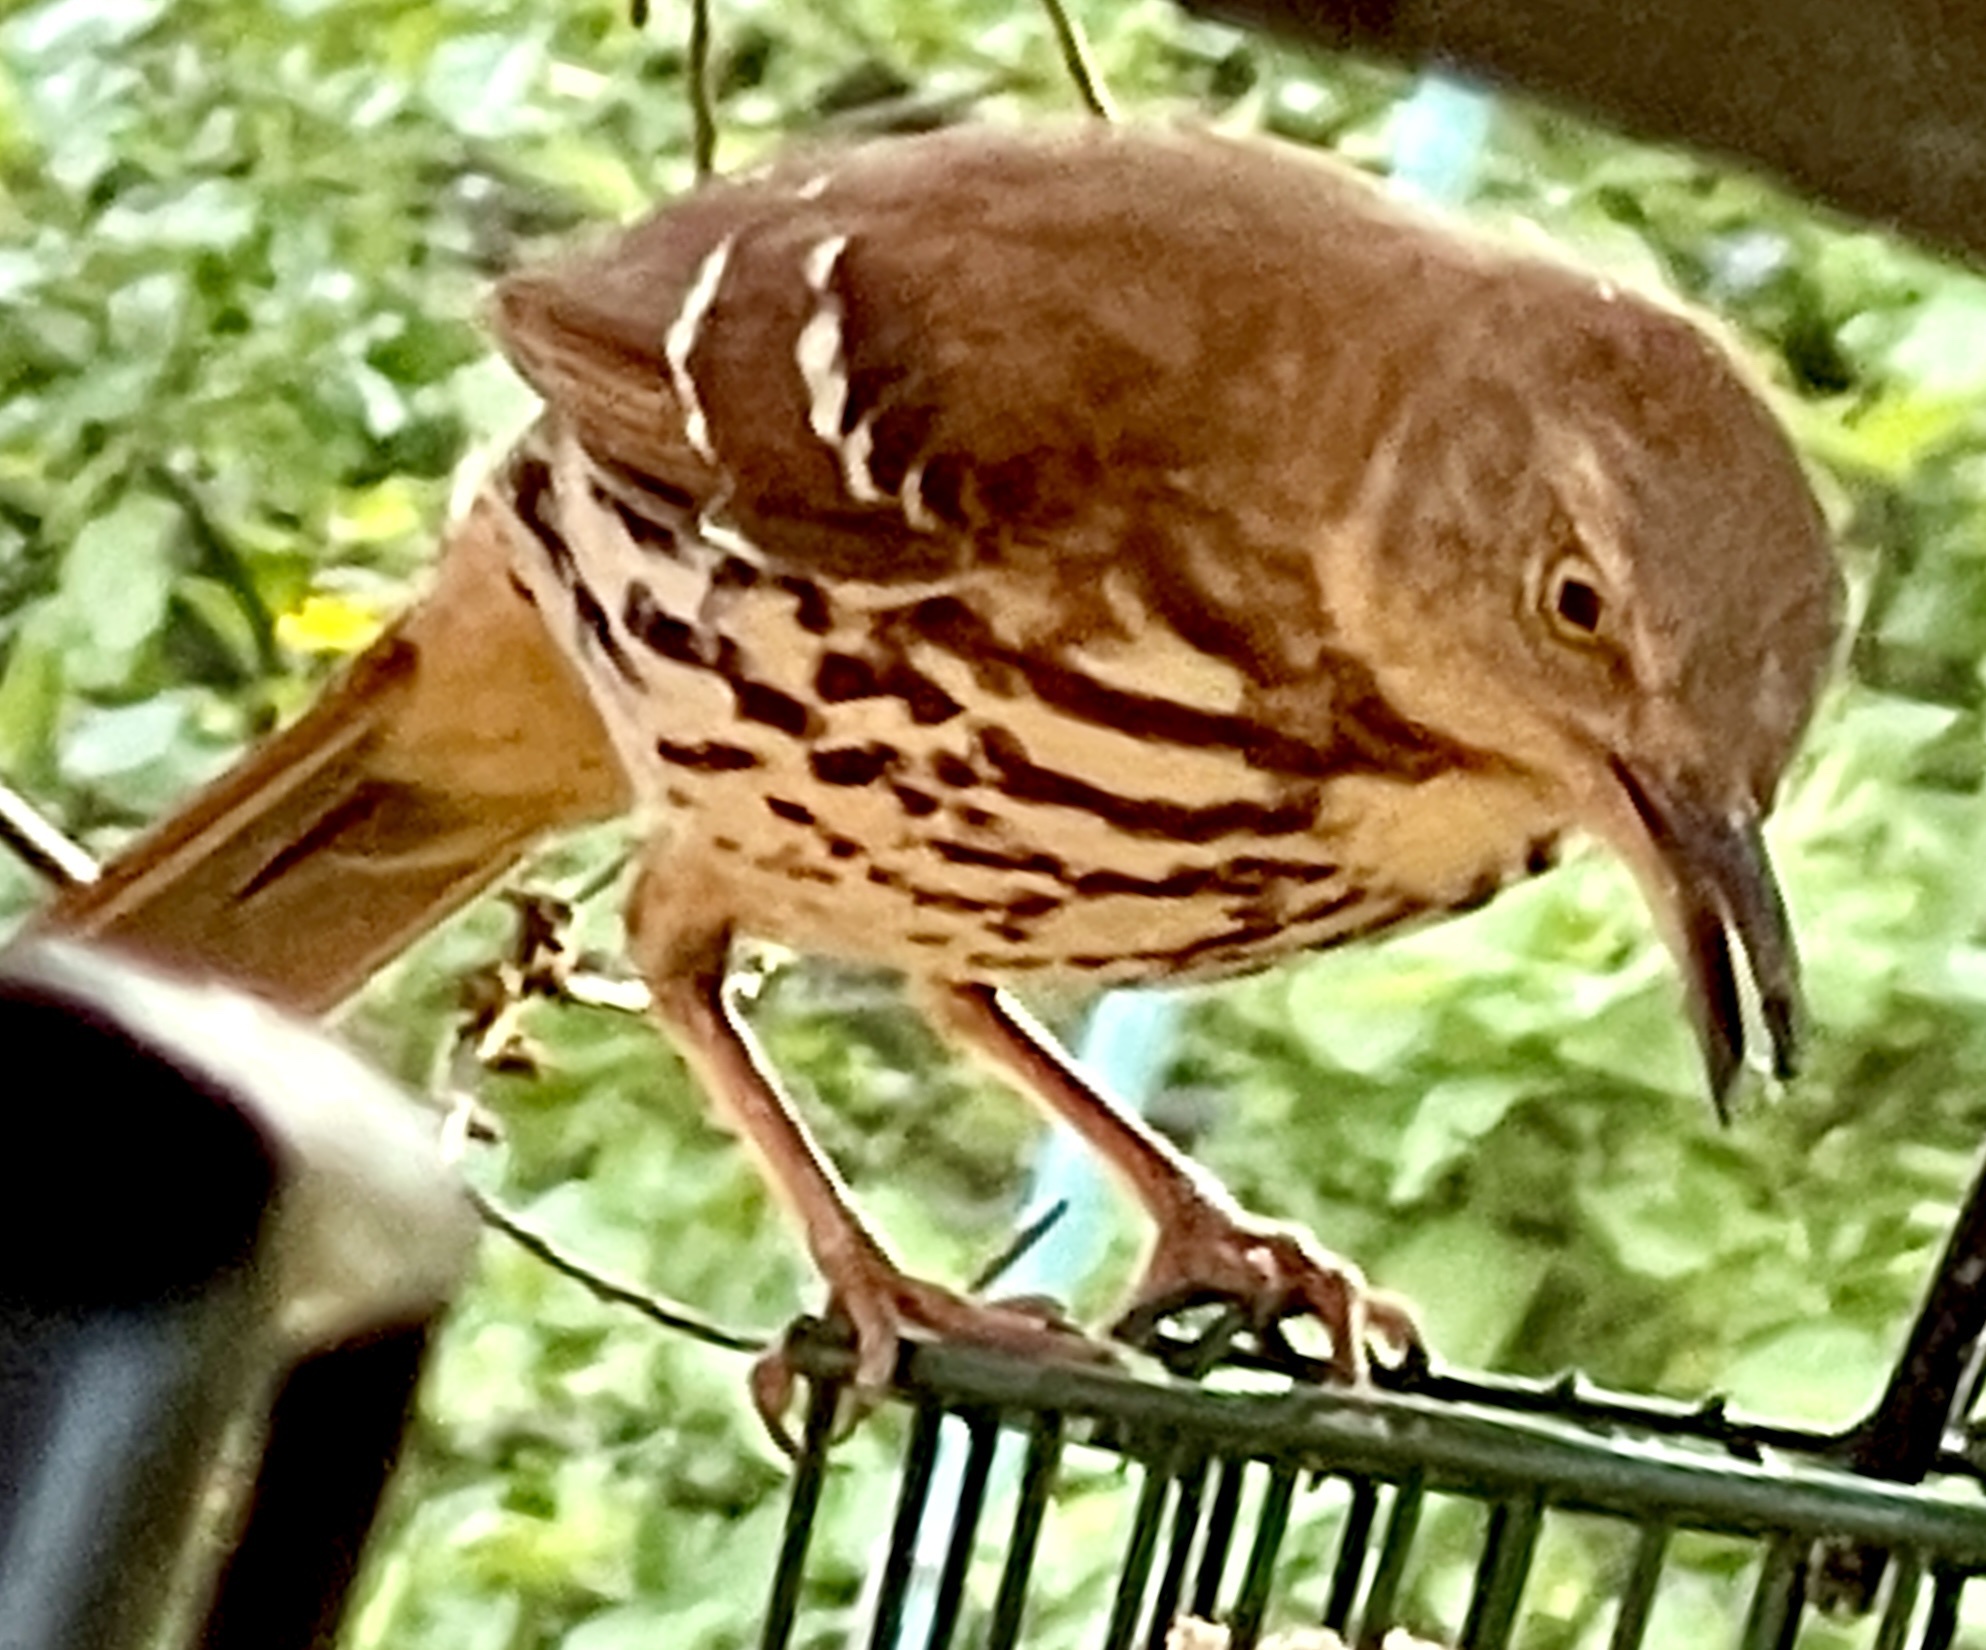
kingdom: Animalia
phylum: Chordata
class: Aves
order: Passeriformes
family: Mimidae
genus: Toxostoma
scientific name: Toxostoma rufum
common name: Brown thrasher
